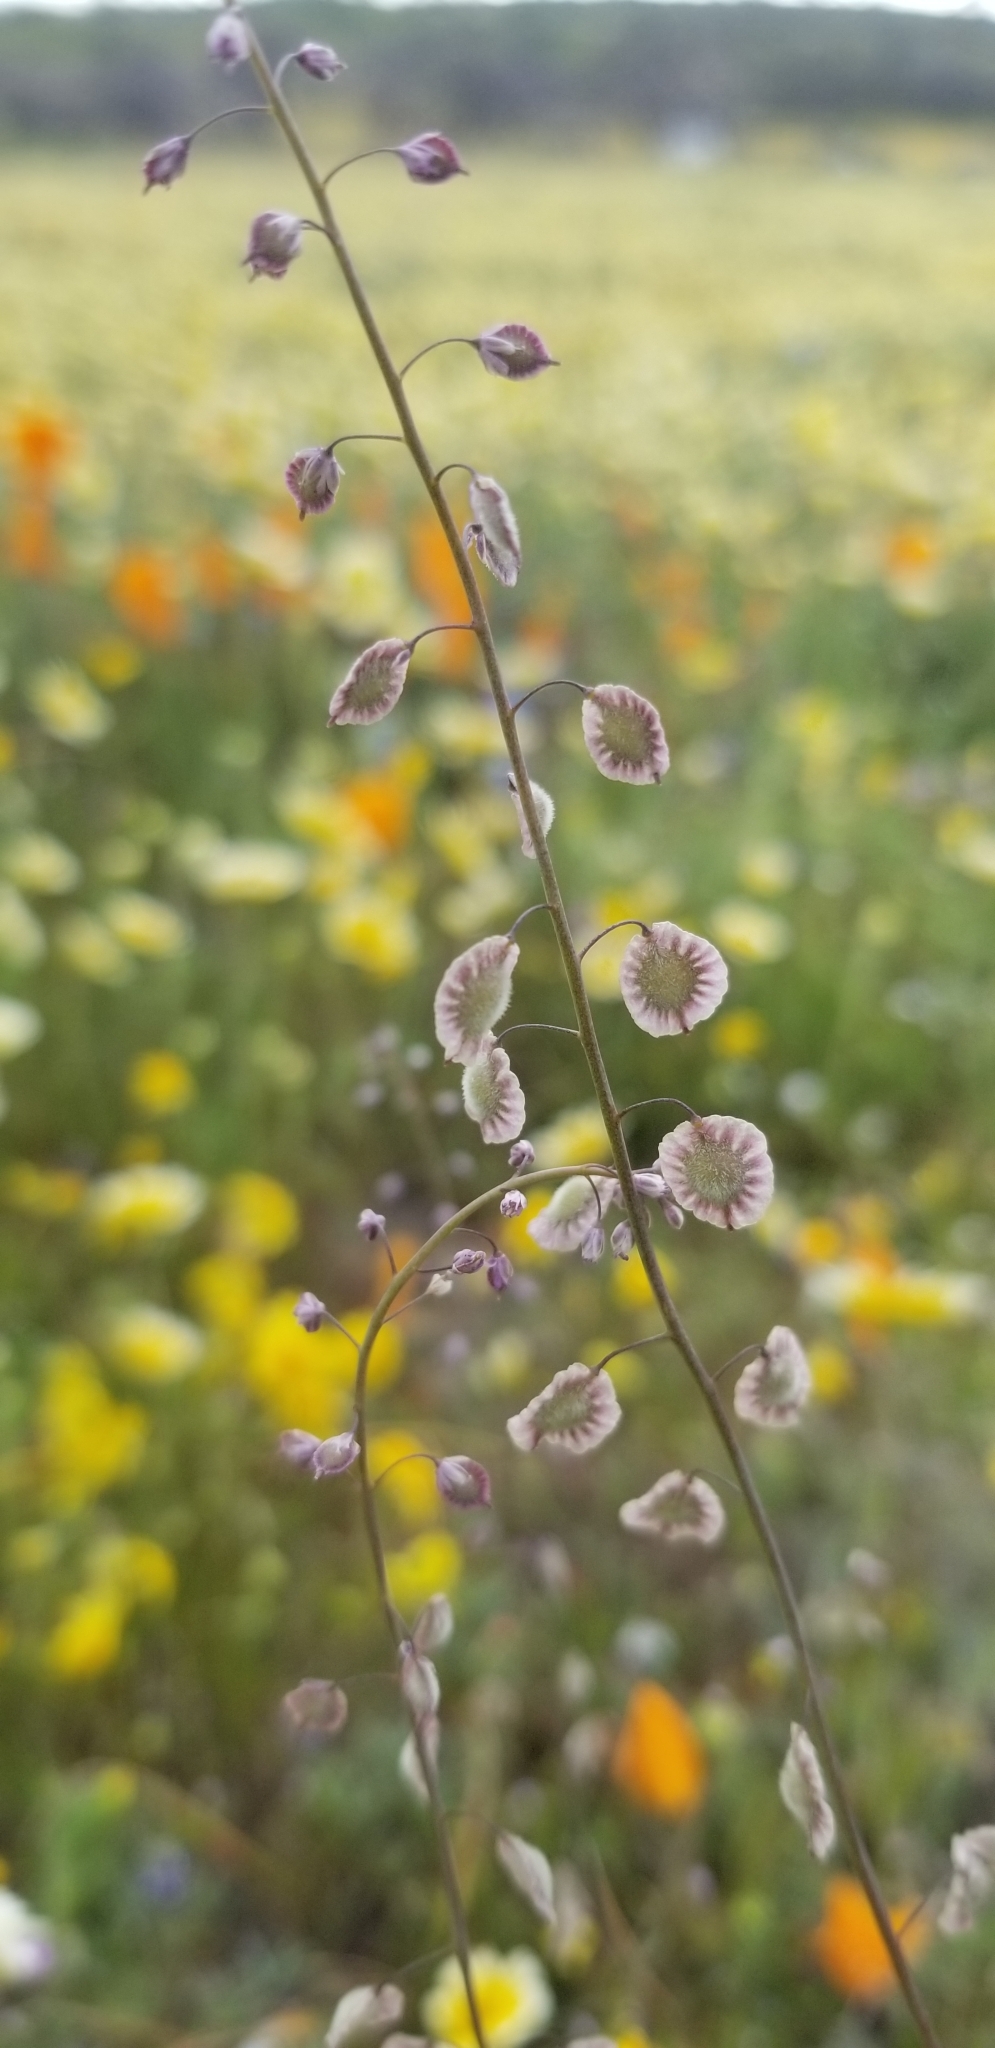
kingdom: Plantae
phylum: Tracheophyta
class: Magnoliopsida
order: Brassicales
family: Brassicaceae
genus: Thysanocarpus
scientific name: Thysanocarpus curvipes
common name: Sand fringepod
